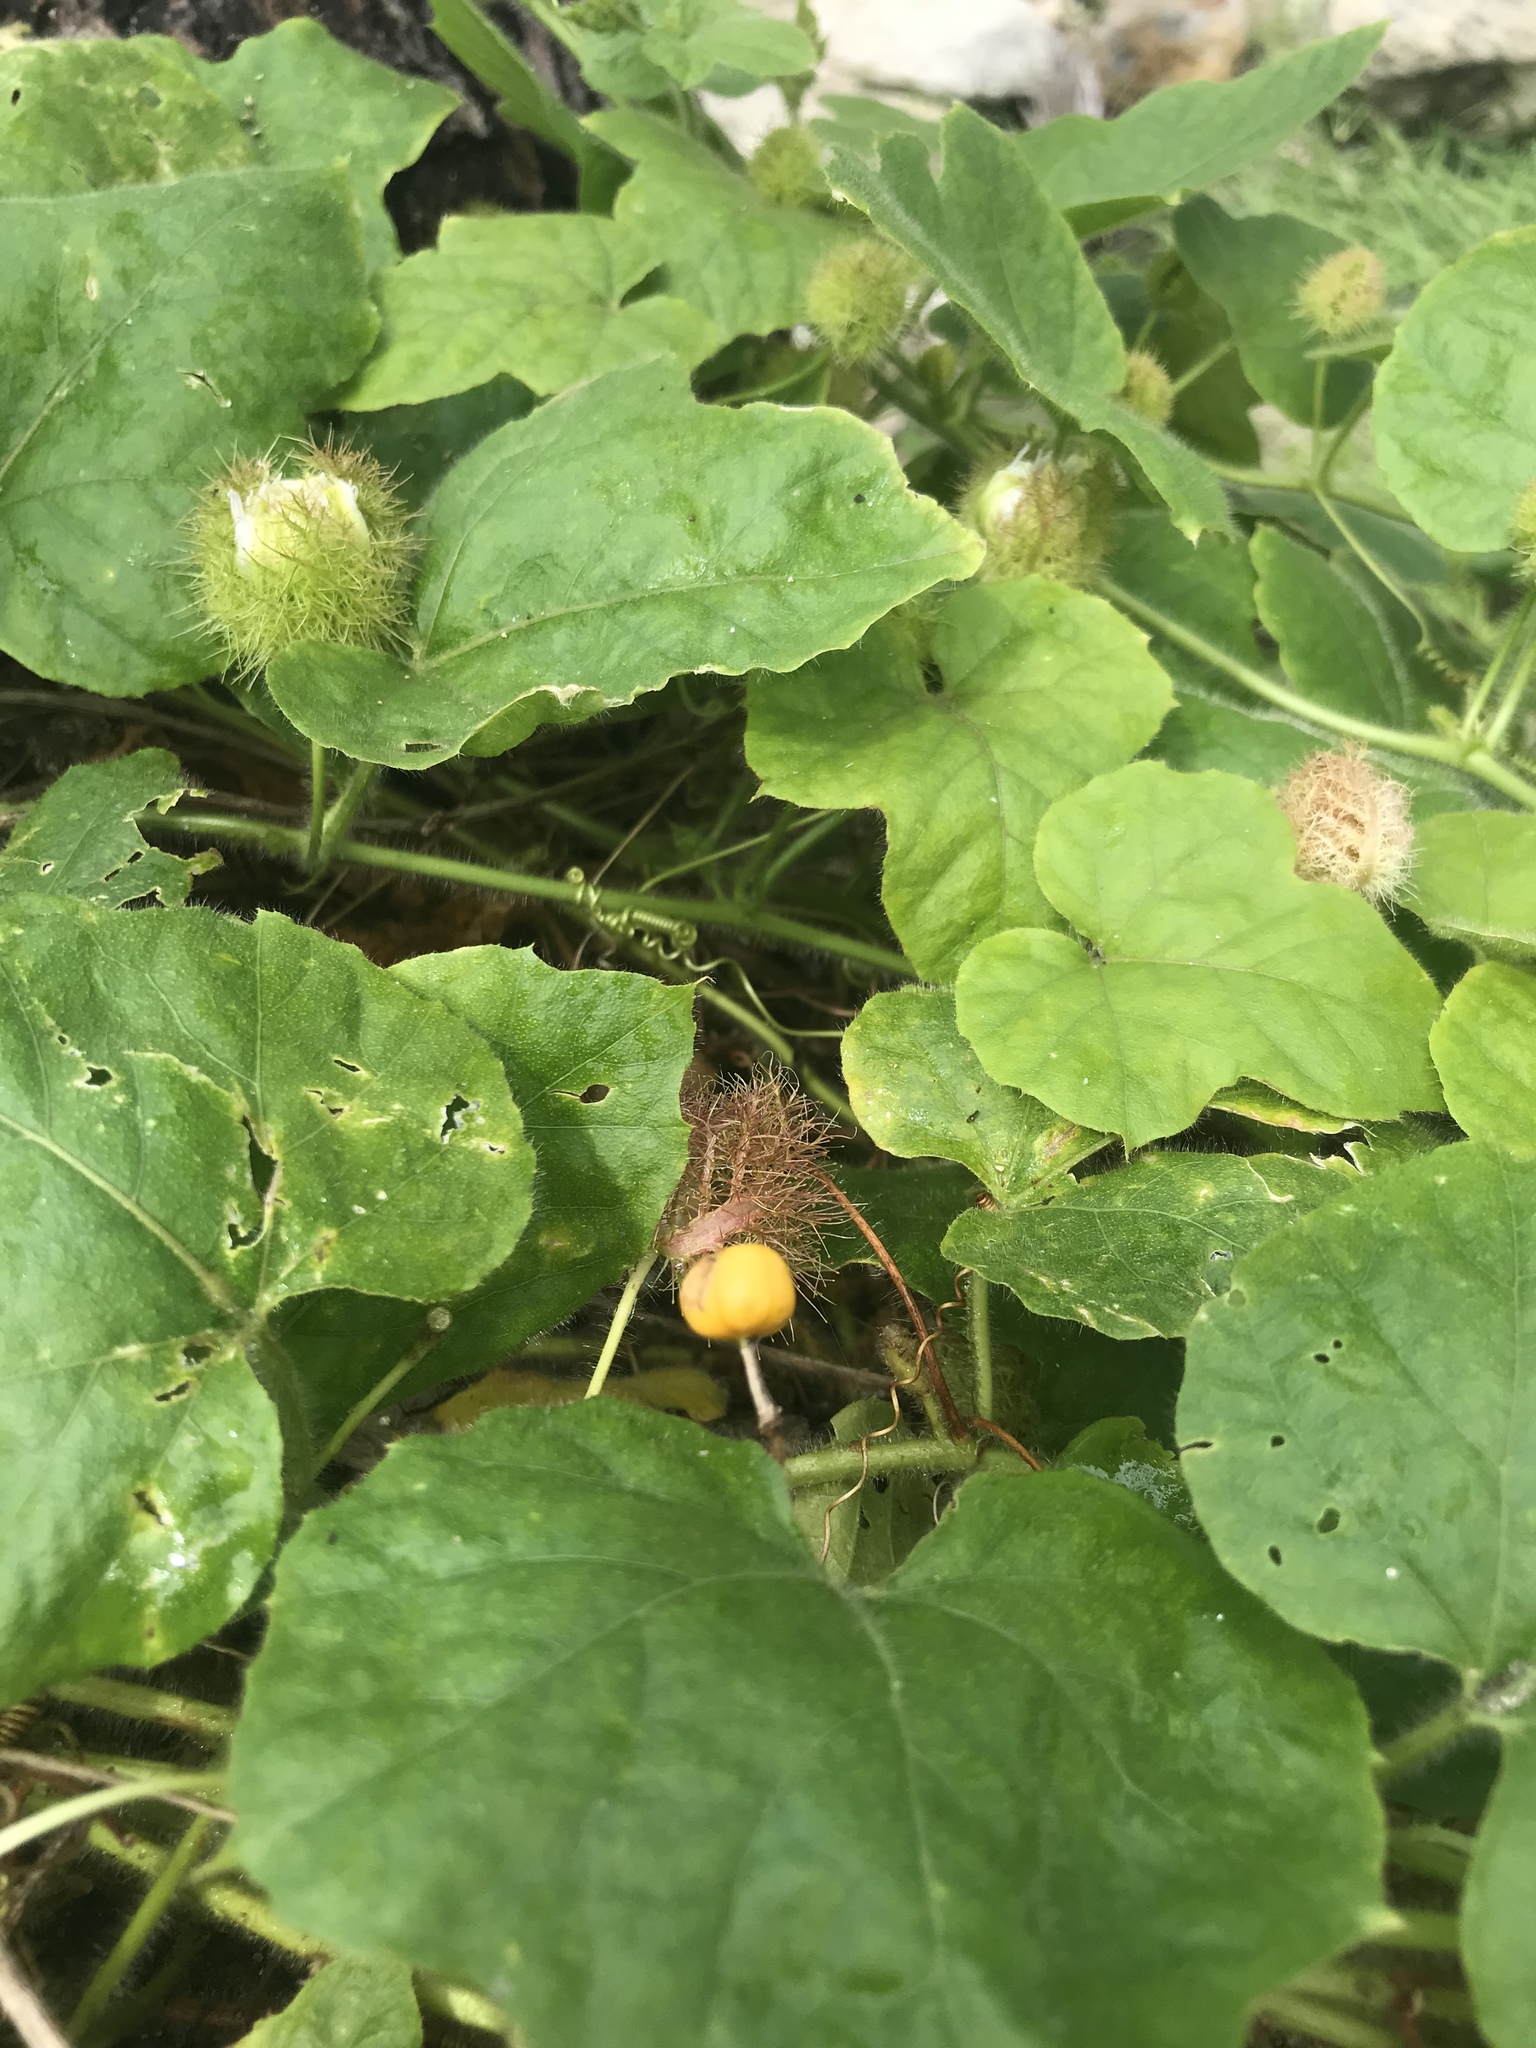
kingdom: Plantae
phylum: Tracheophyta
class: Magnoliopsida
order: Malpighiales
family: Passifloraceae
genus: Passiflora
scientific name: Passiflora foetida
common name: Fetid passionflower
